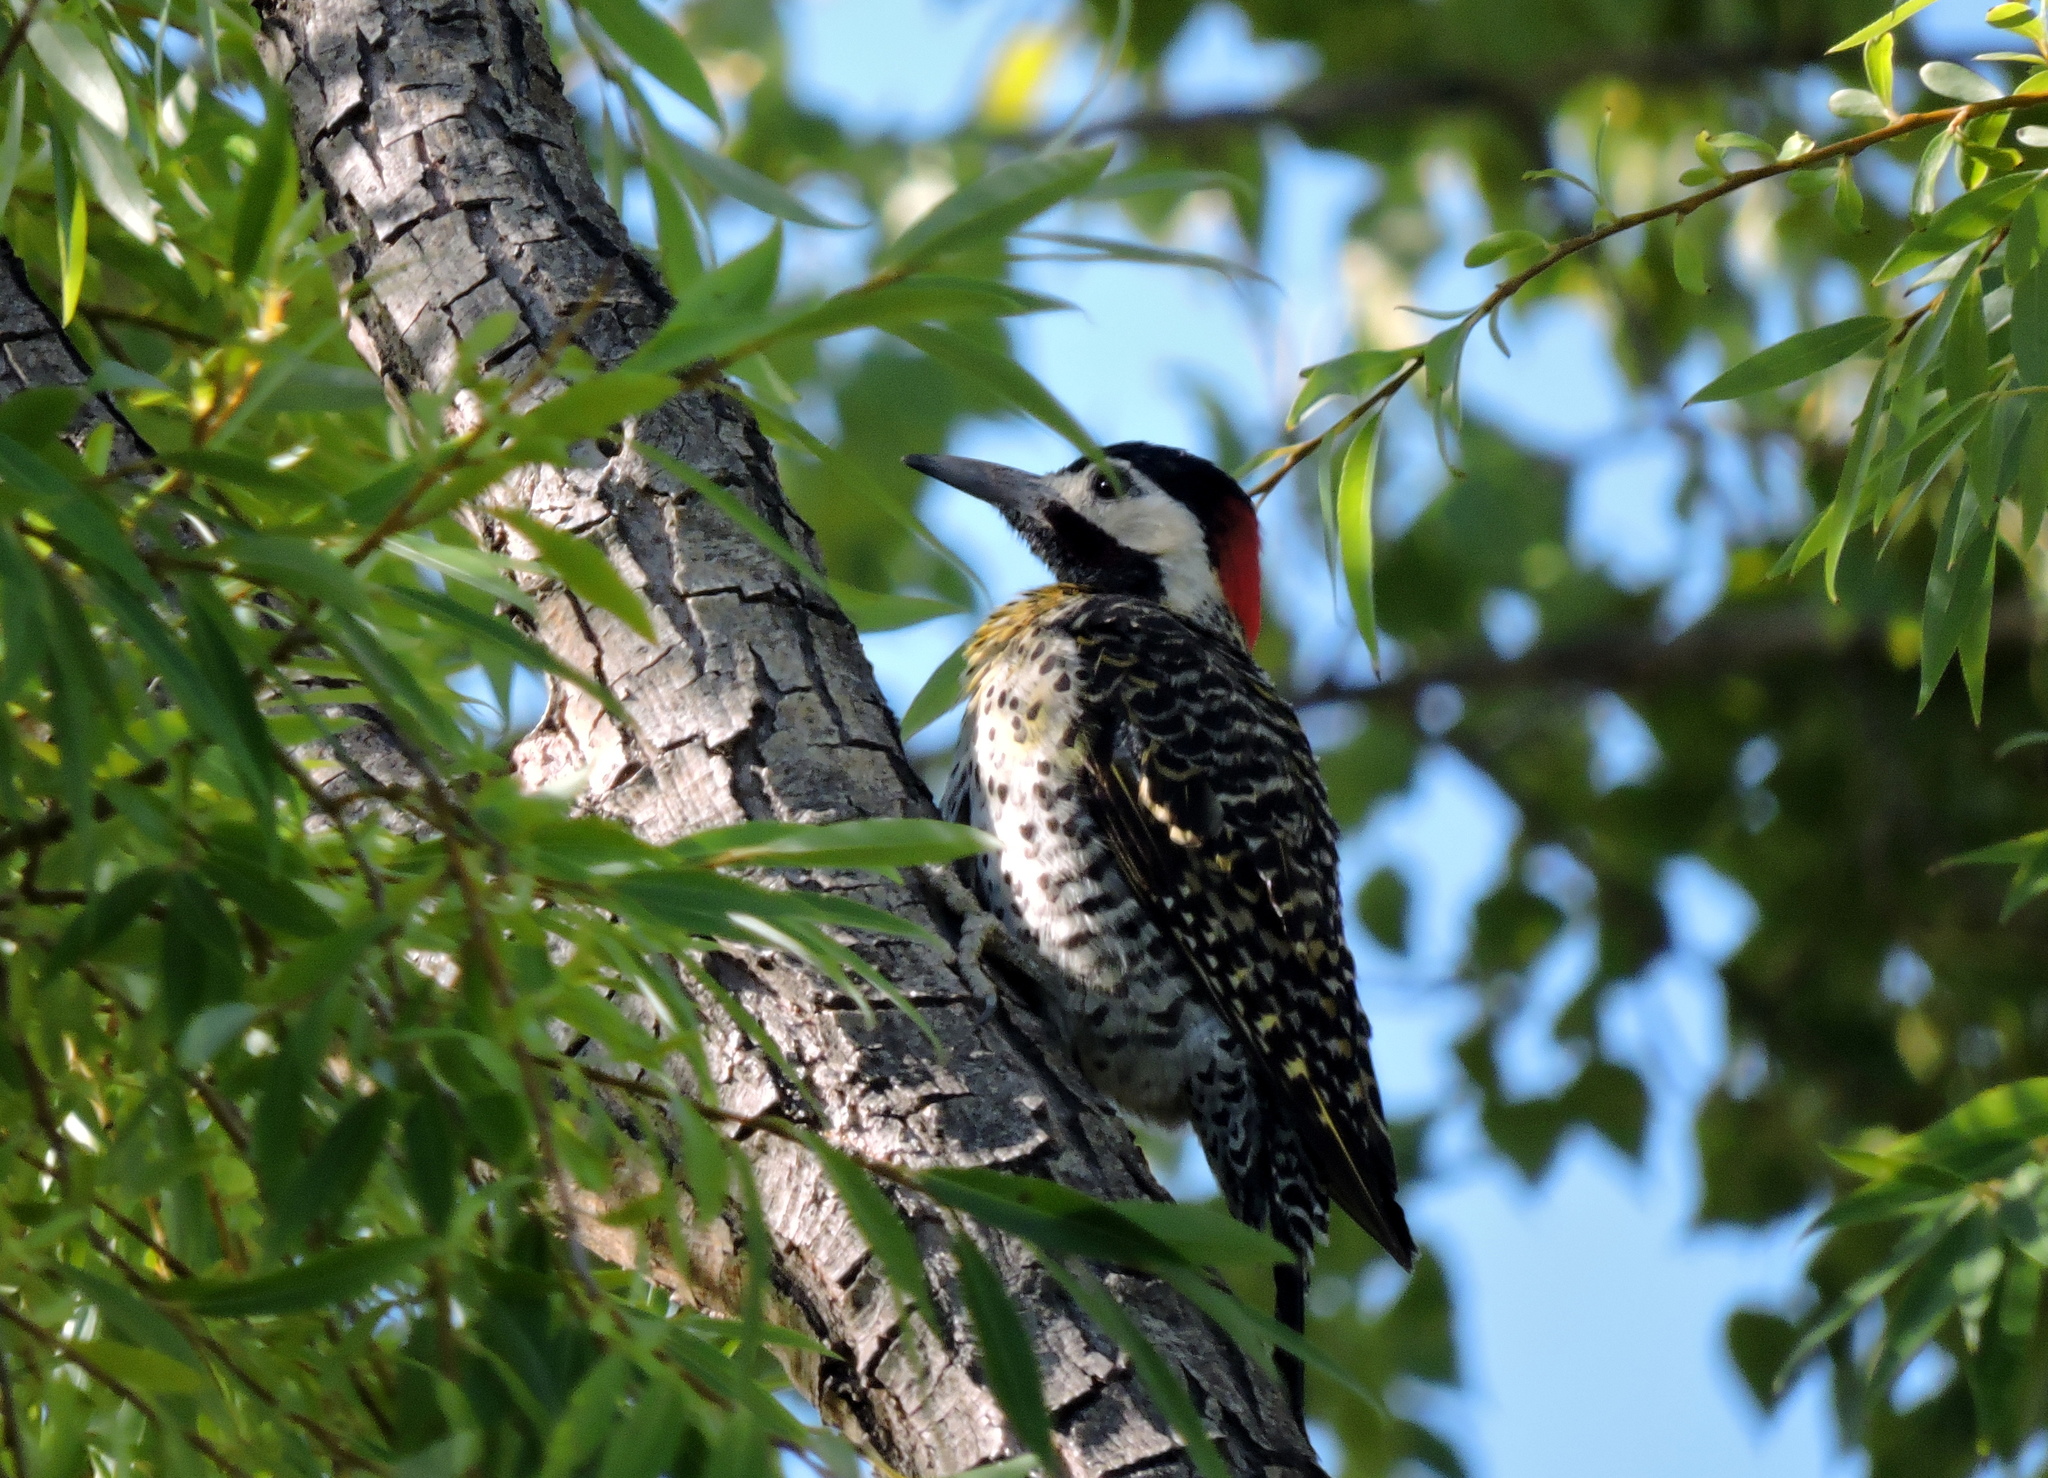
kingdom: Animalia
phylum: Chordata
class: Aves
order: Piciformes
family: Picidae
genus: Colaptes
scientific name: Colaptes melanochloros
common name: Green-barred woodpecker
